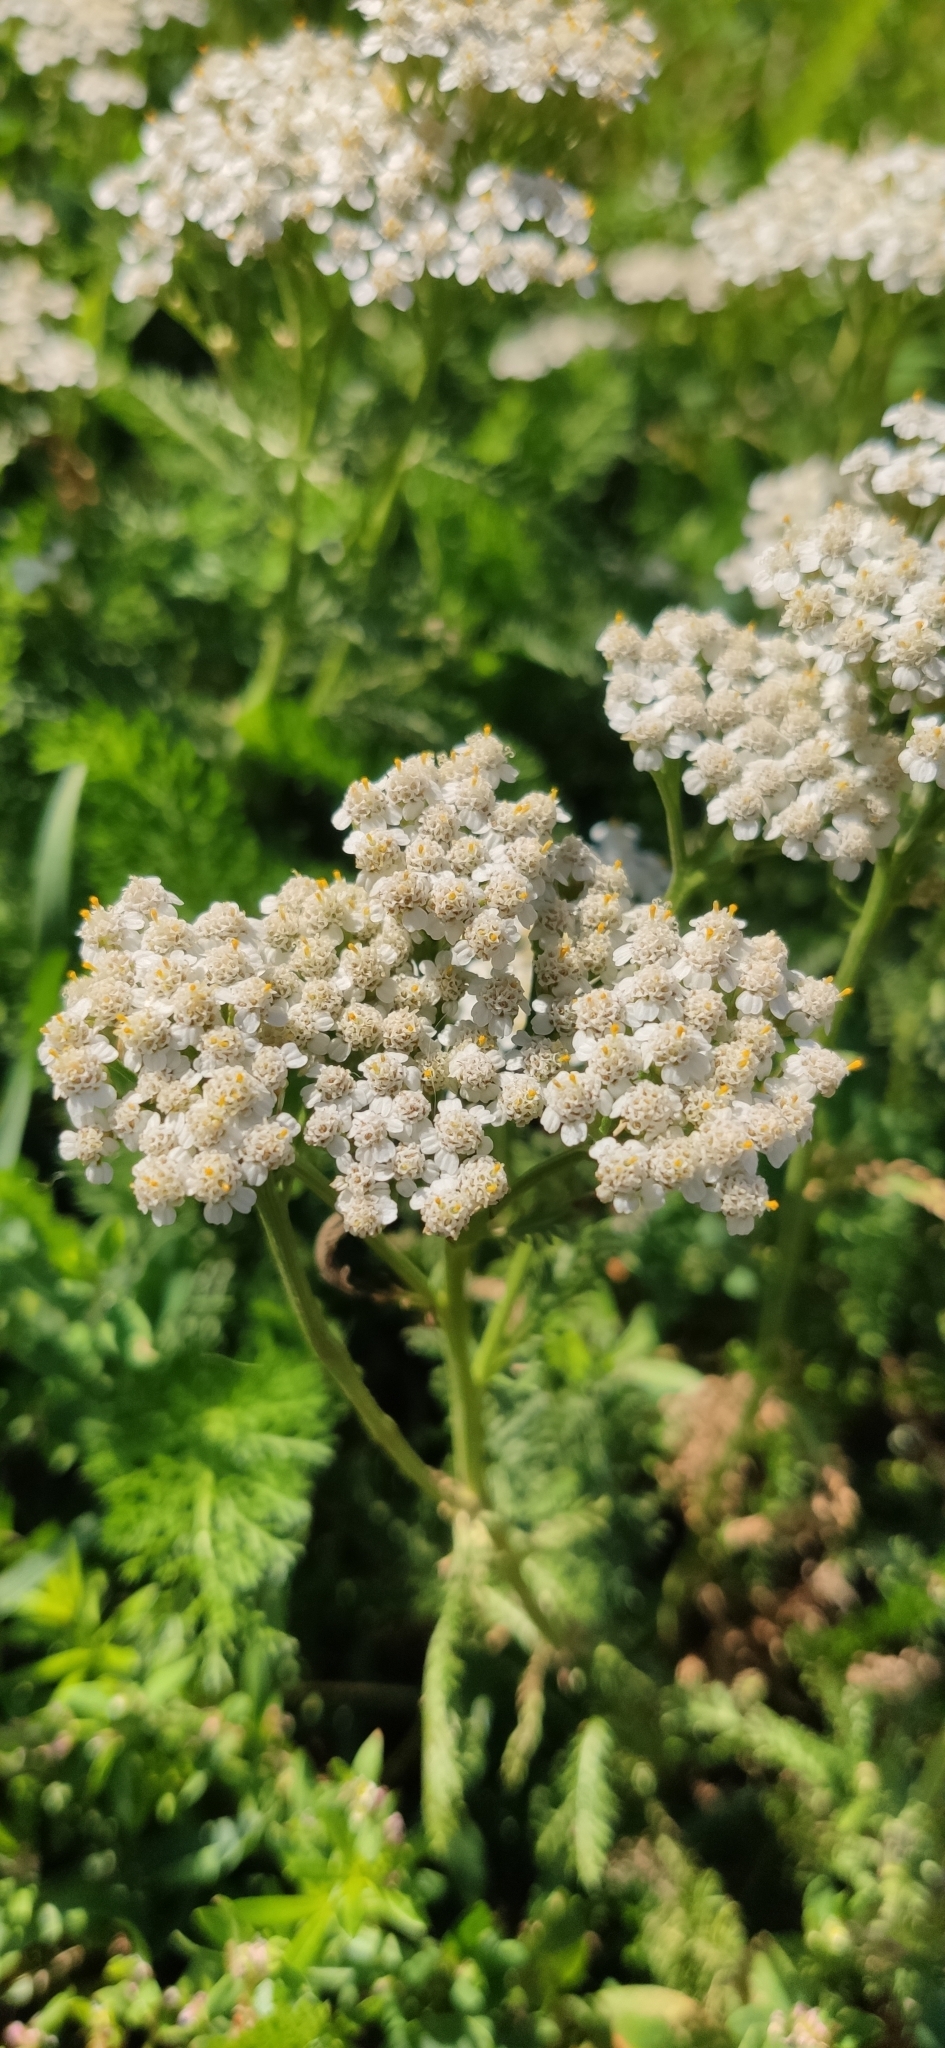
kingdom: Plantae
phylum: Tracheophyta
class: Magnoliopsida
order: Asterales
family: Asteraceae
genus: Achillea
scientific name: Achillea millefolium
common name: Yarrow
